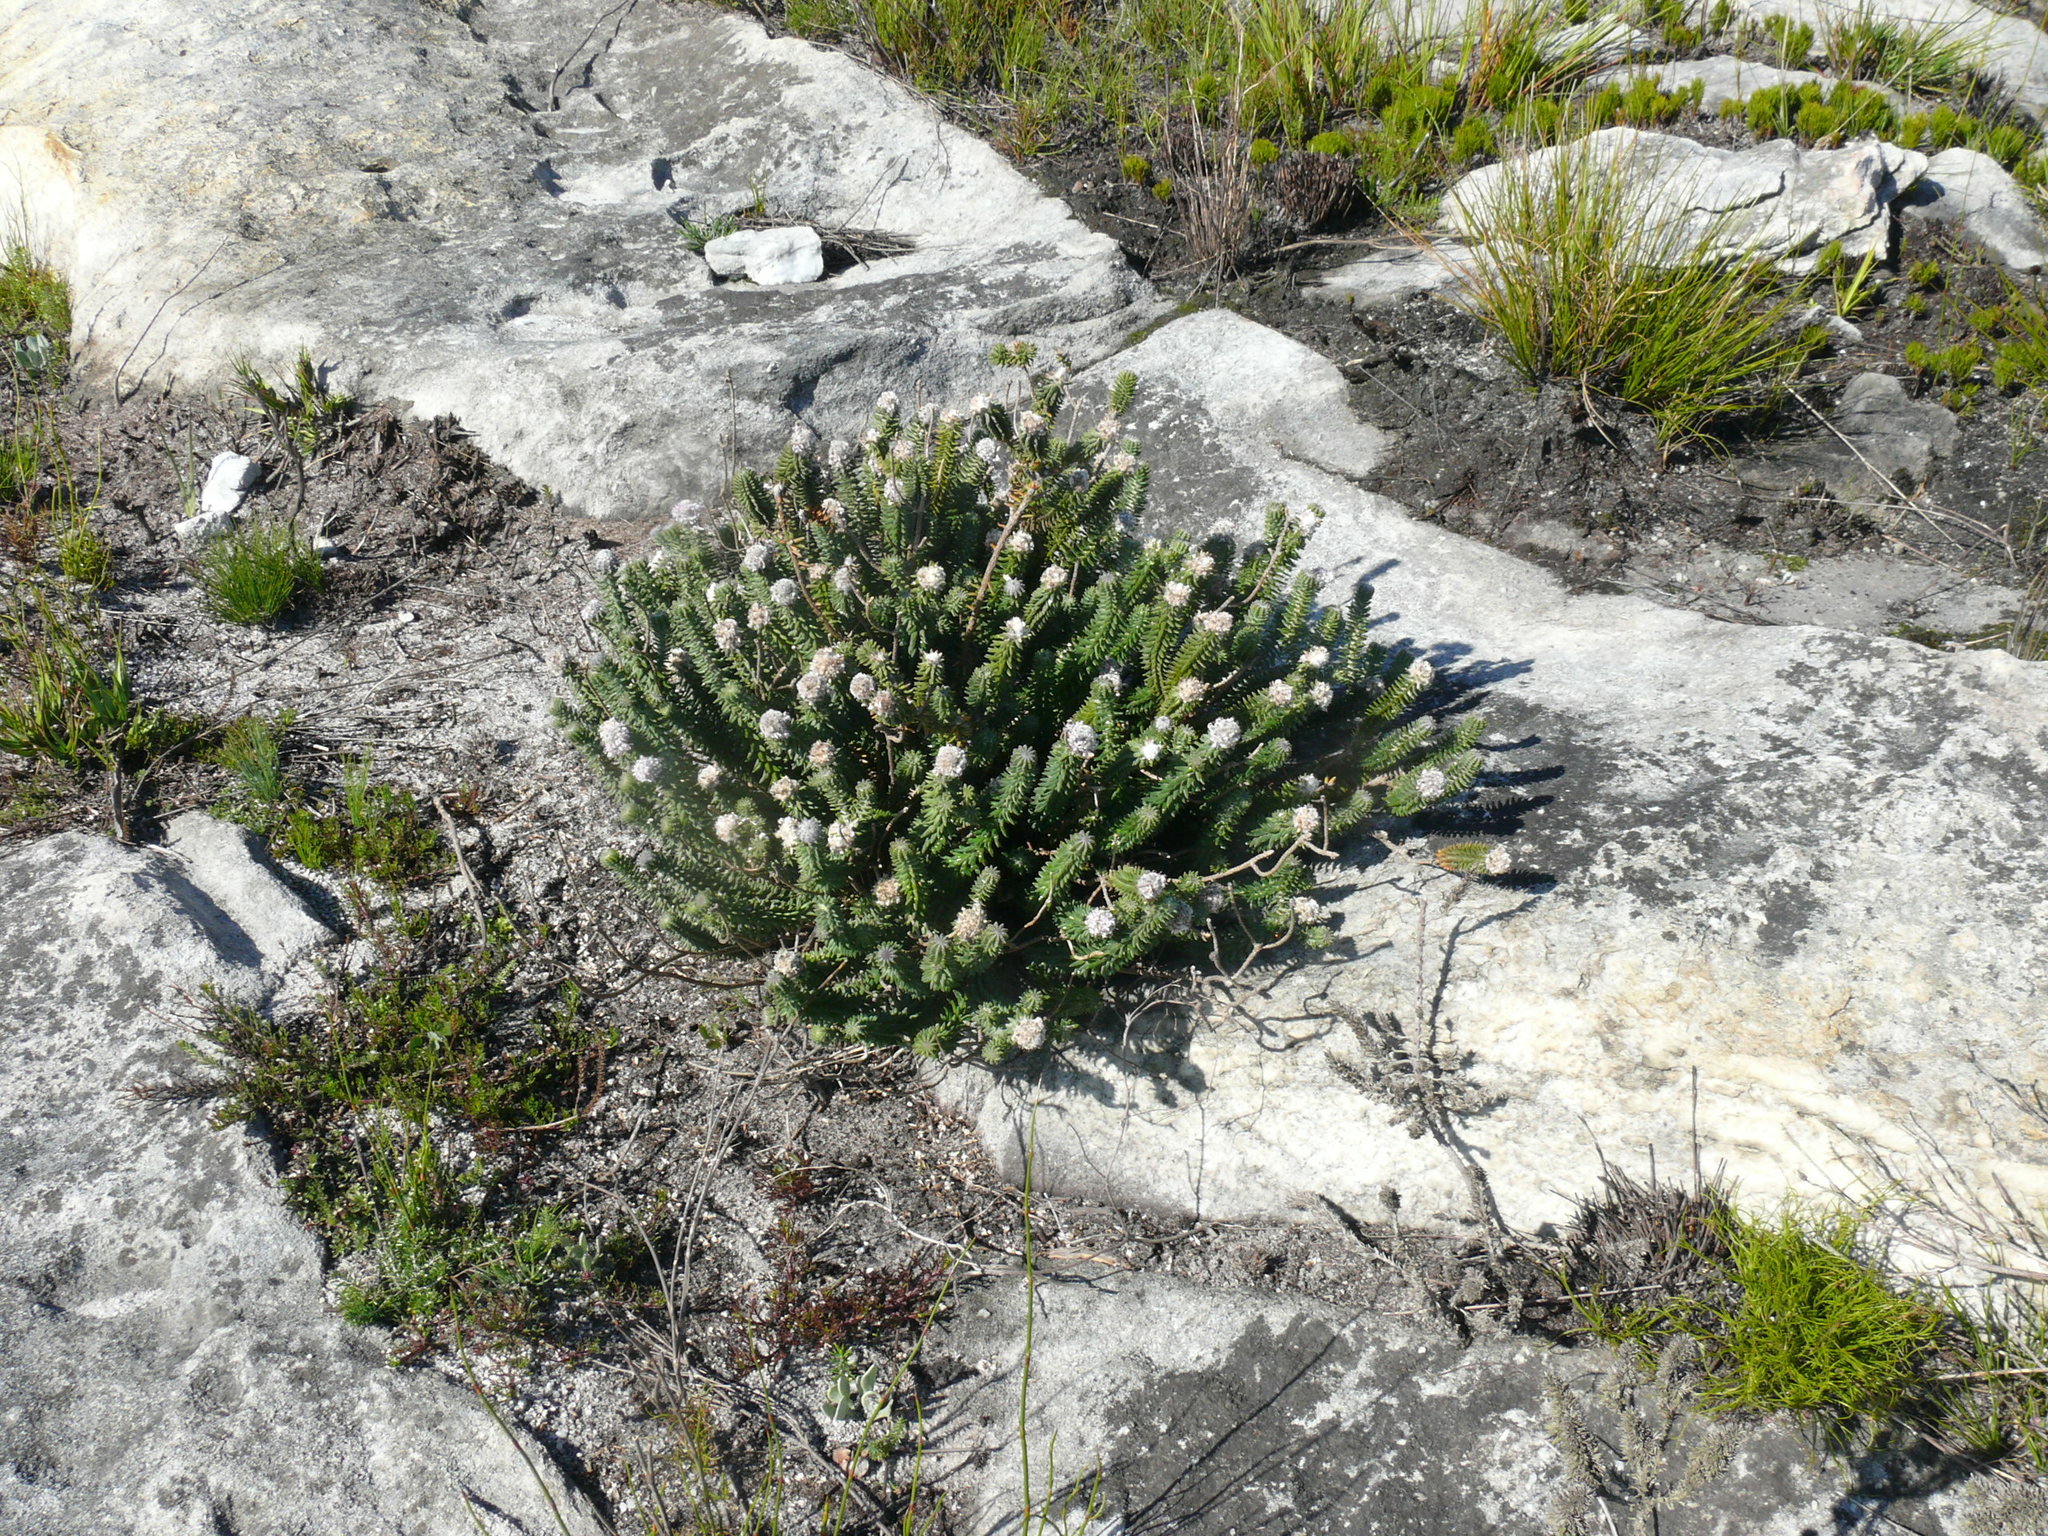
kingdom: Plantae
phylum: Tracheophyta
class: Magnoliopsida
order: Lamiales
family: Stilbaceae
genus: Kogelbergia
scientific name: Kogelbergia verticillata
